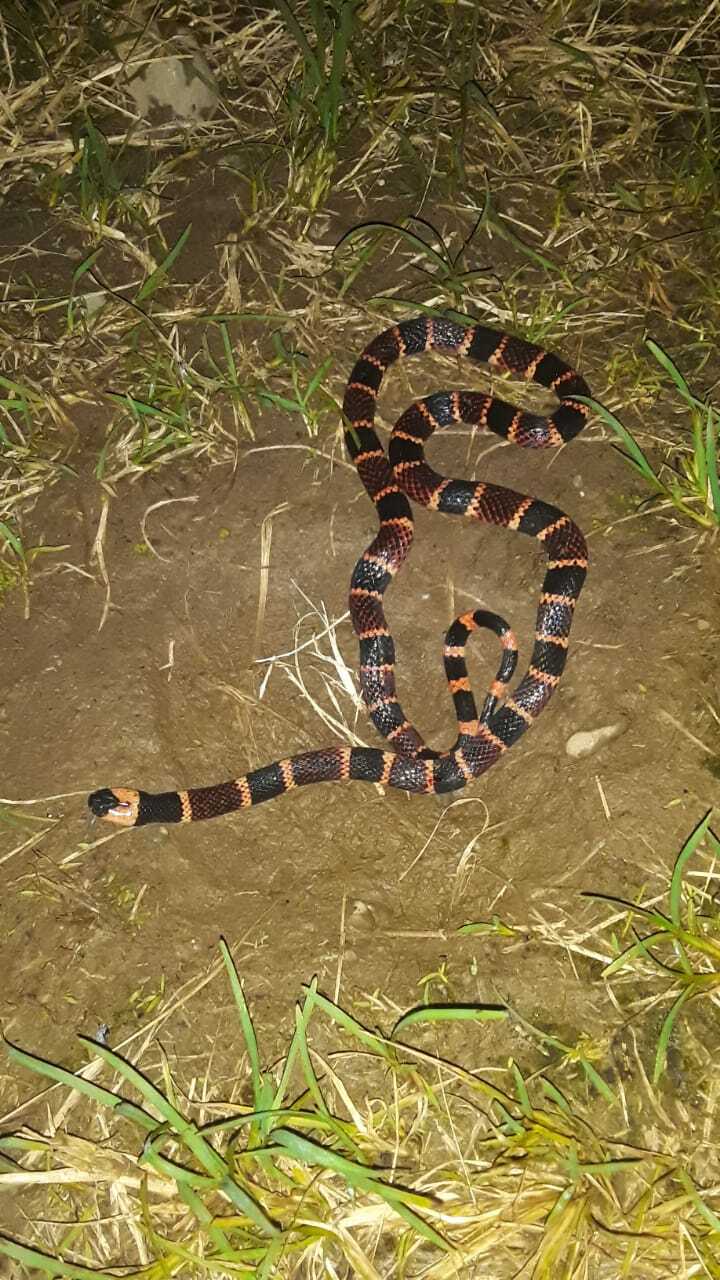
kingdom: Animalia
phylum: Chordata
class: Squamata
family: Elapidae
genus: Micrurus
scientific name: Micrurus alleni
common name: Allen's coral snake
